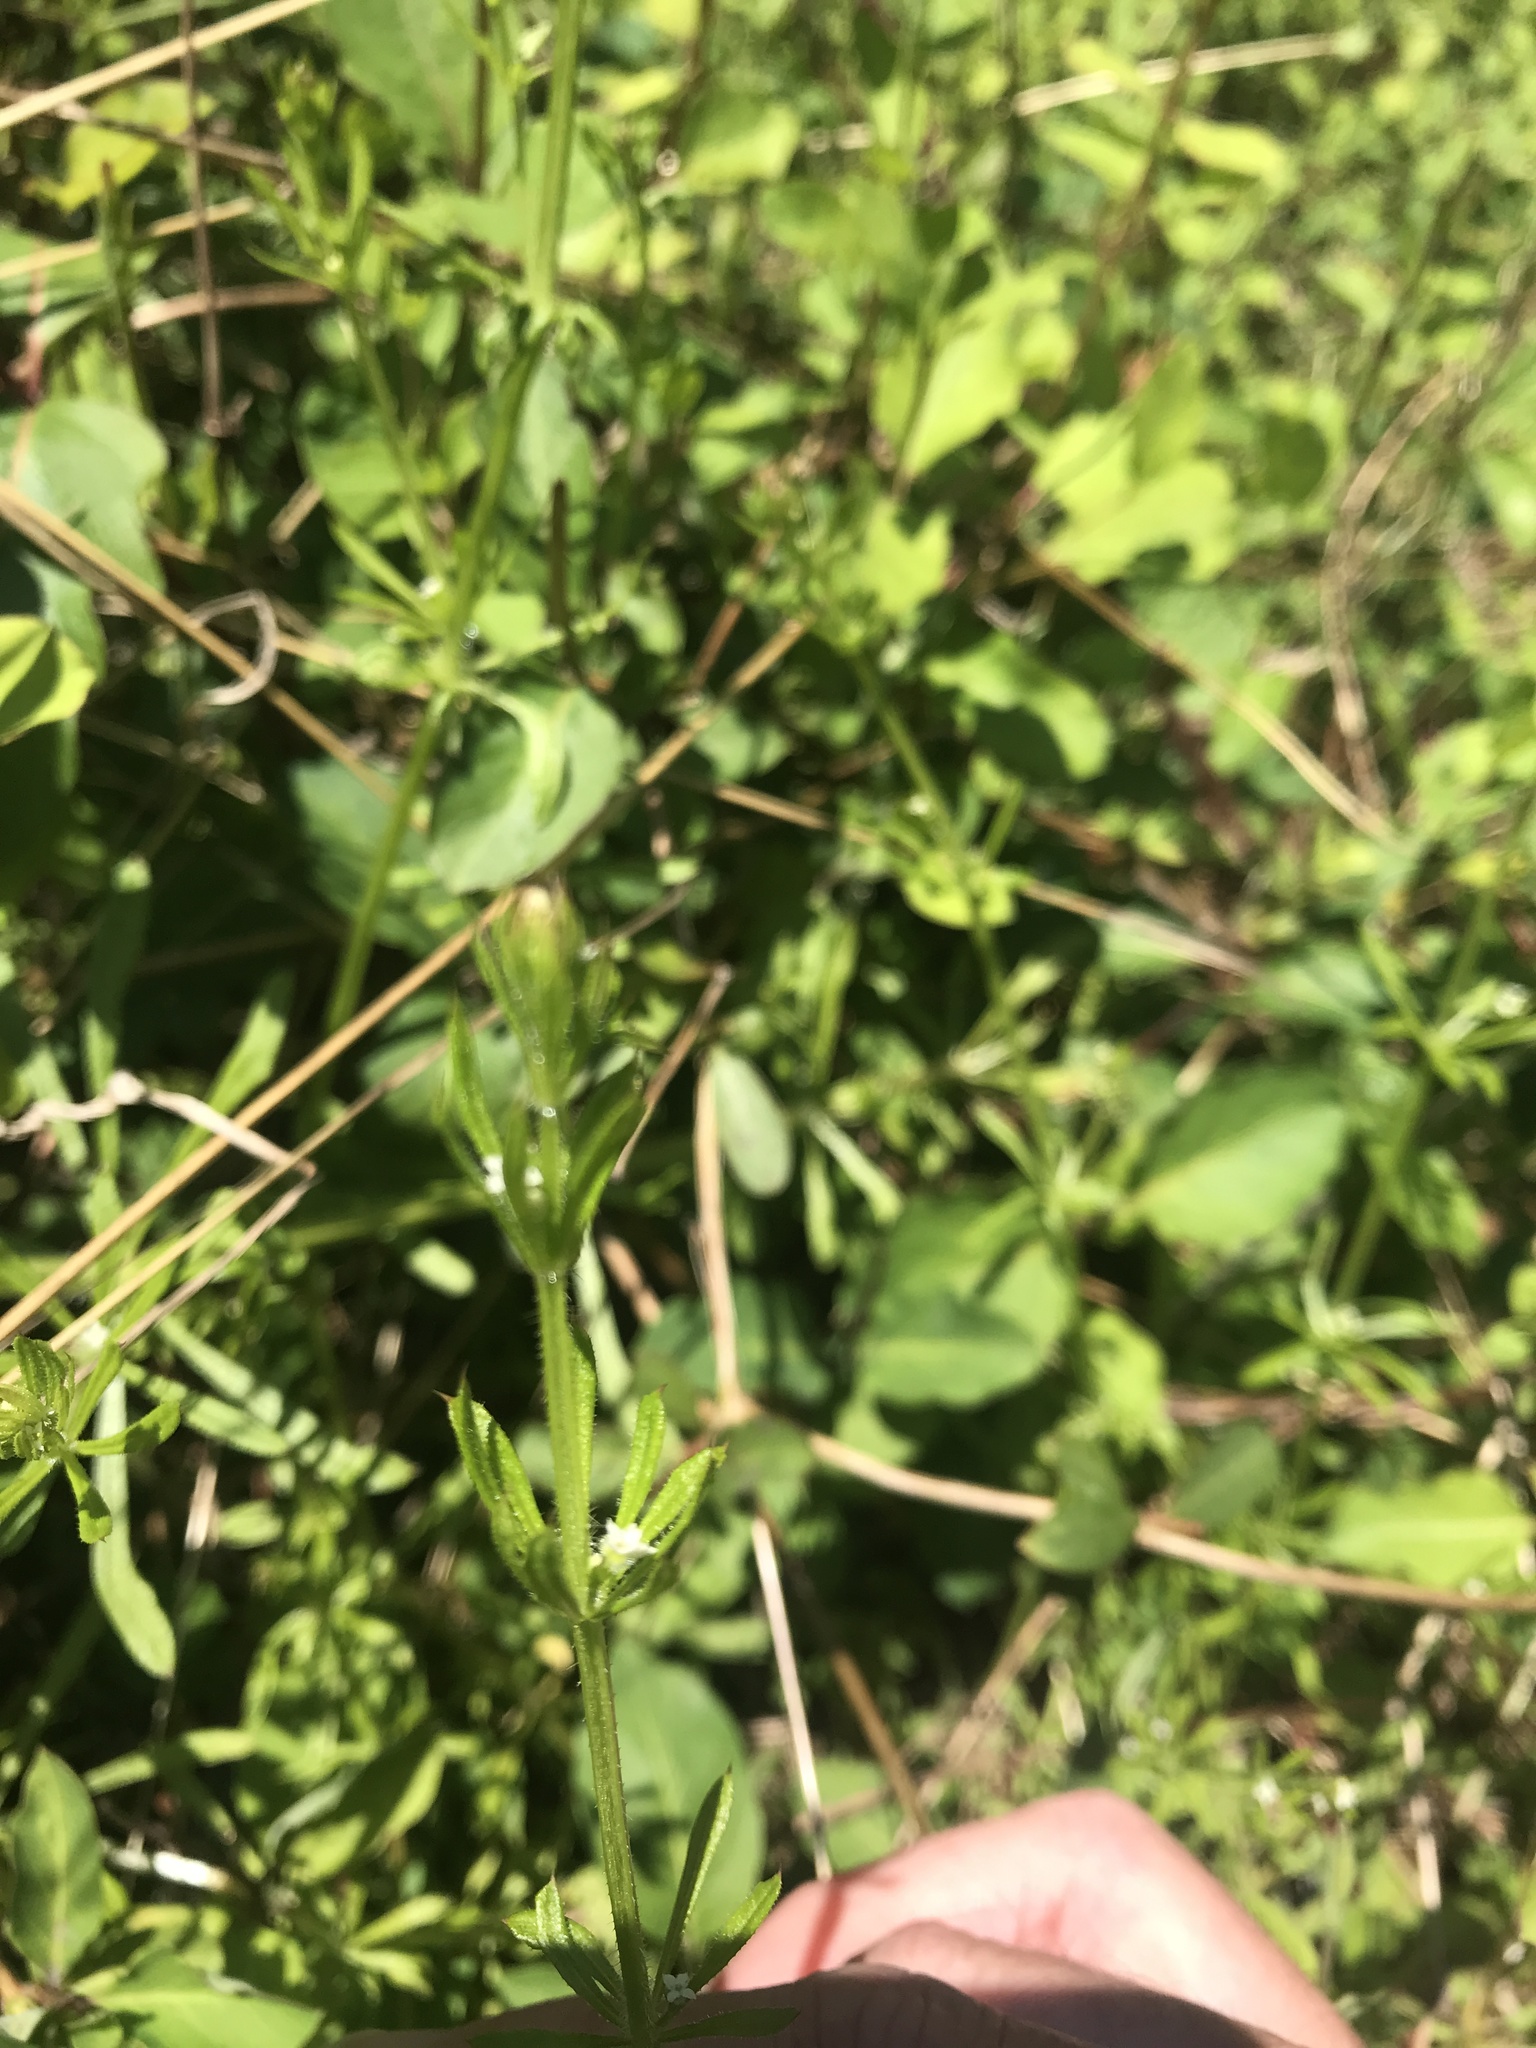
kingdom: Plantae
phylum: Tracheophyta
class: Magnoliopsida
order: Gentianales
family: Rubiaceae
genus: Galium
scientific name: Galium aparine
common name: Cleavers
